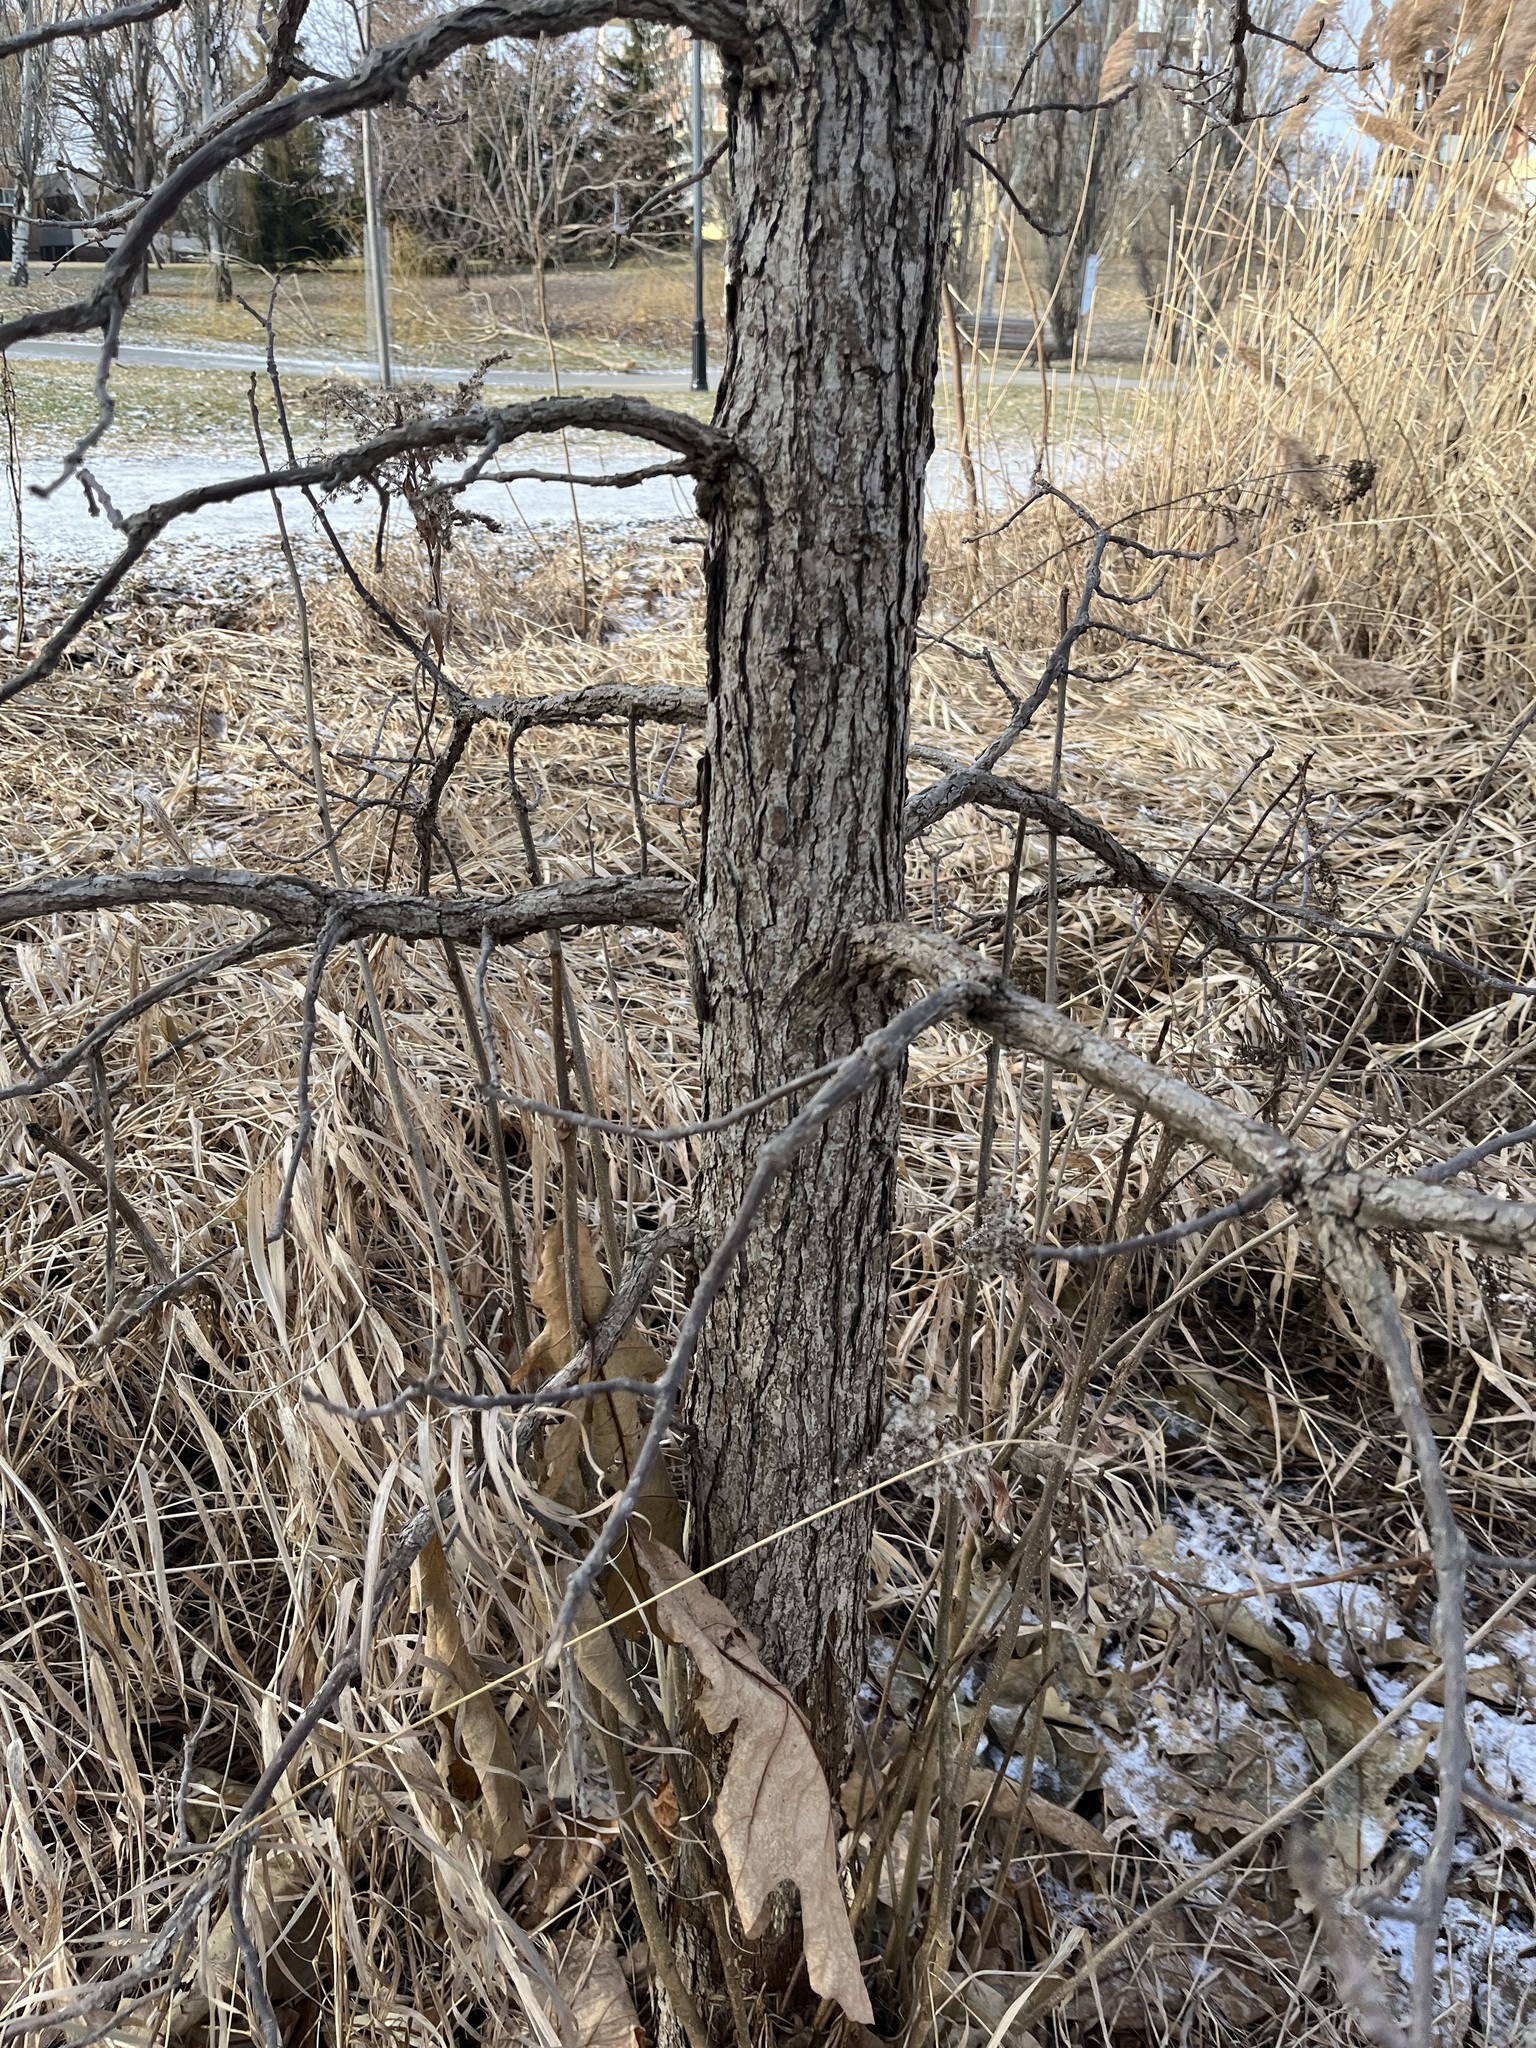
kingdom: Plantae
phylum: Tracheophyta
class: Magnoliopsida
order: Fagales
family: Fagaceae
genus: Quercus
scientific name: Quercus macrocarpa
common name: Bur oak
